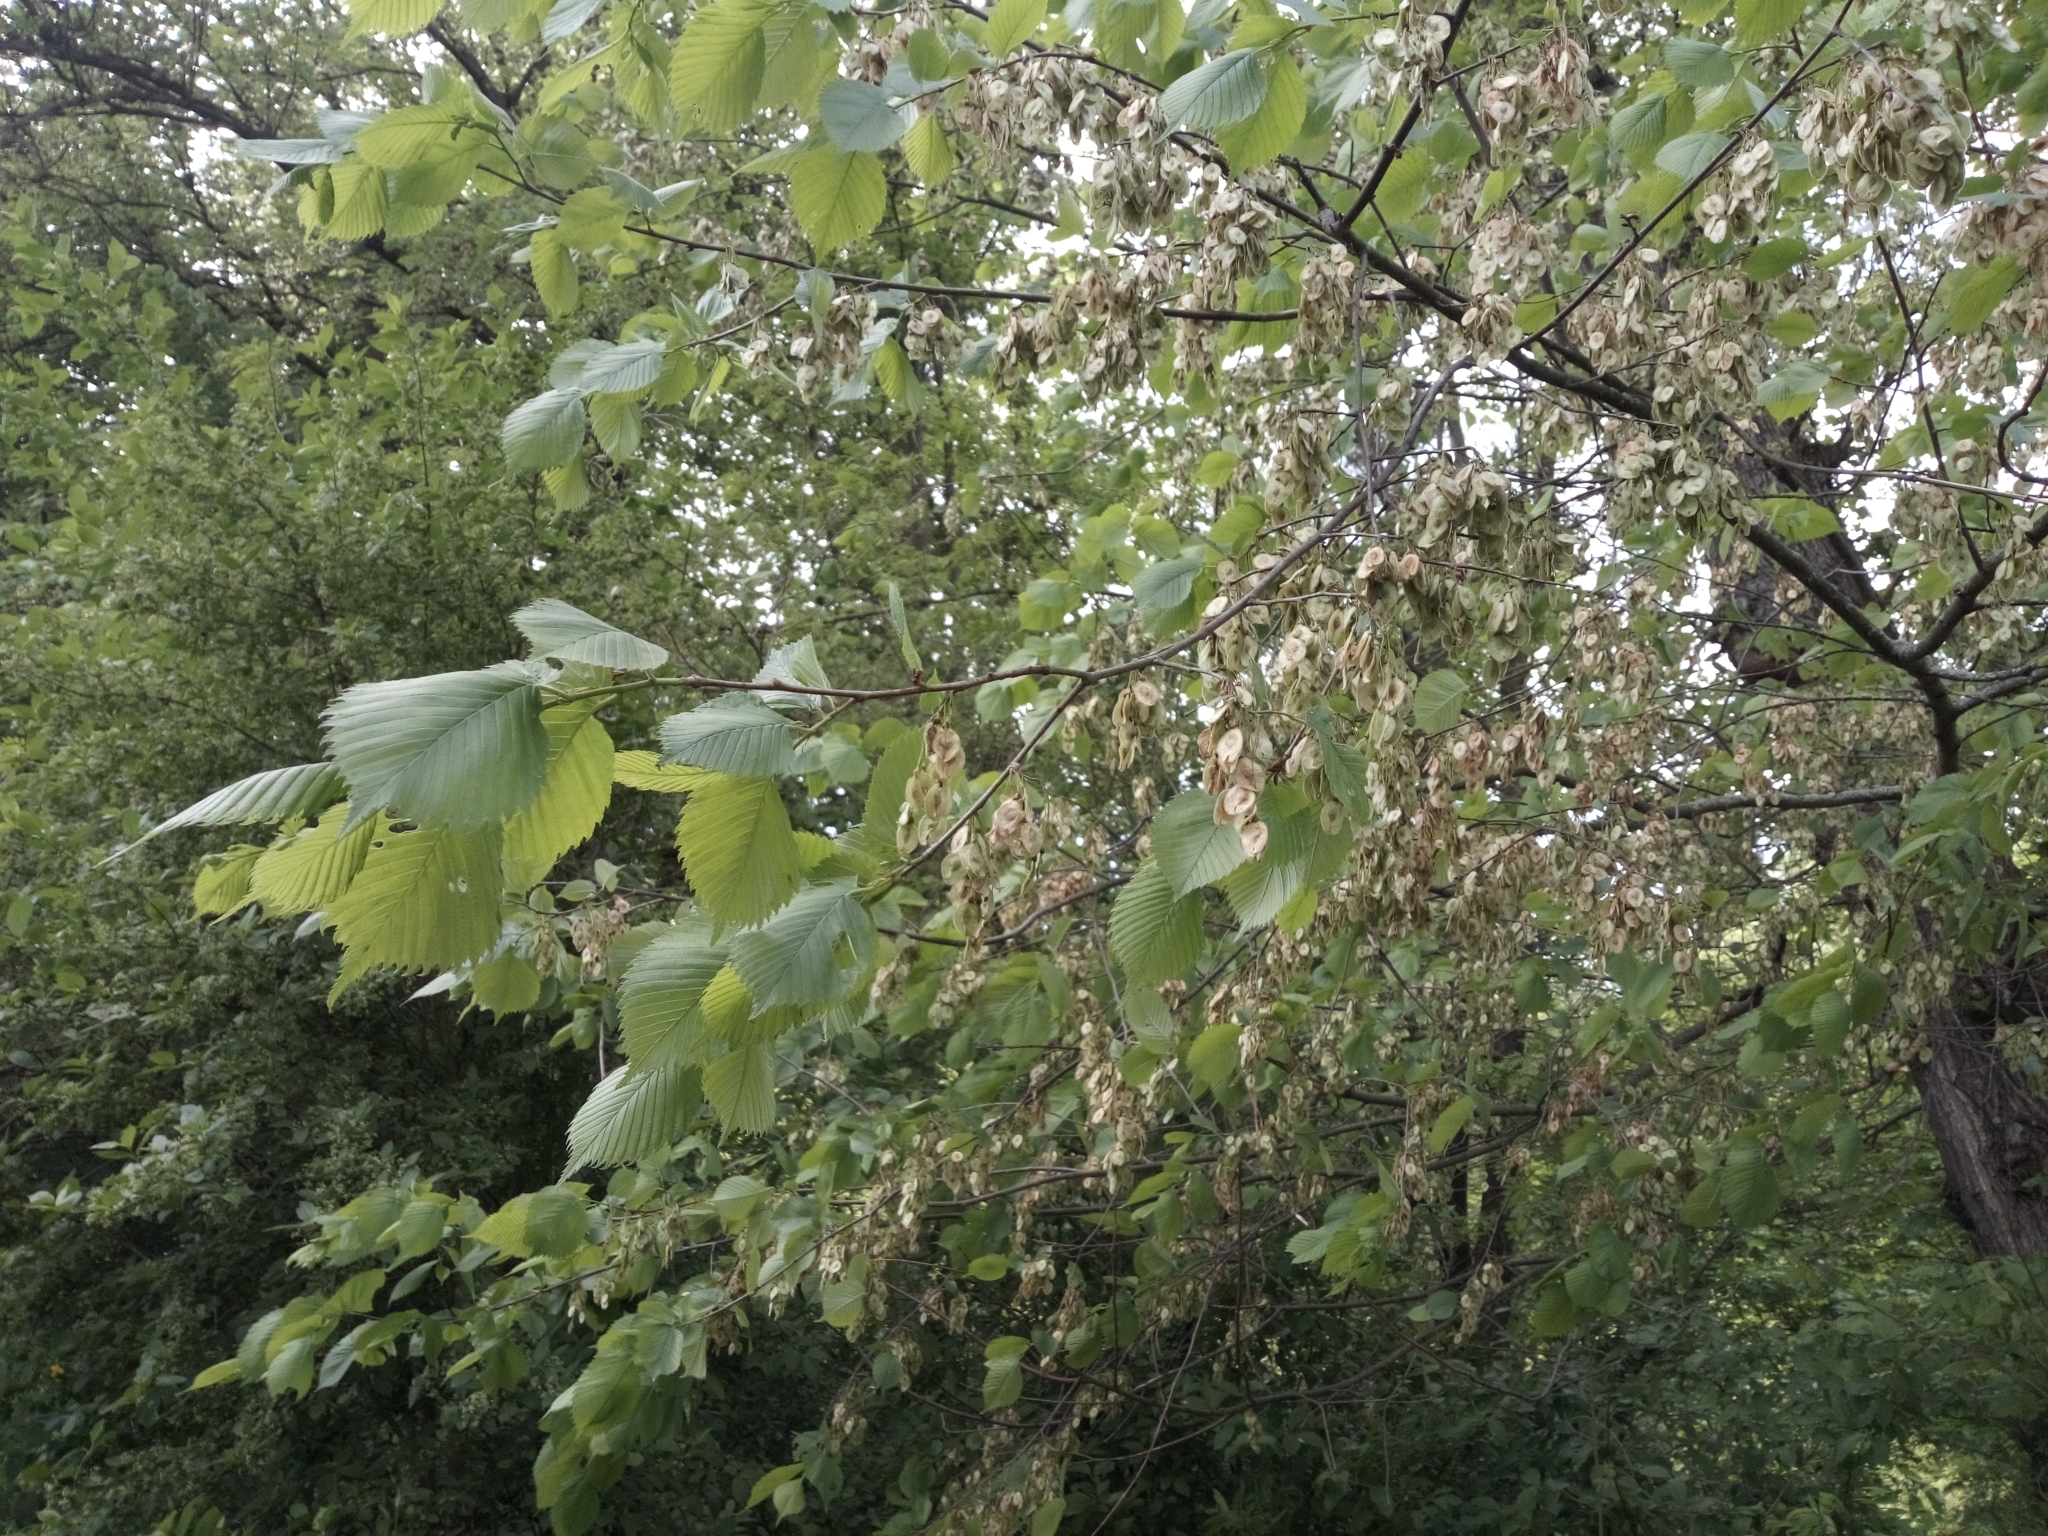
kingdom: Plantae
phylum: Tracheophyta
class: Magnoliopsida
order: Rosales
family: Ulmaceae
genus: Ulmus
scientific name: Ulmus laevis
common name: European white-elm
